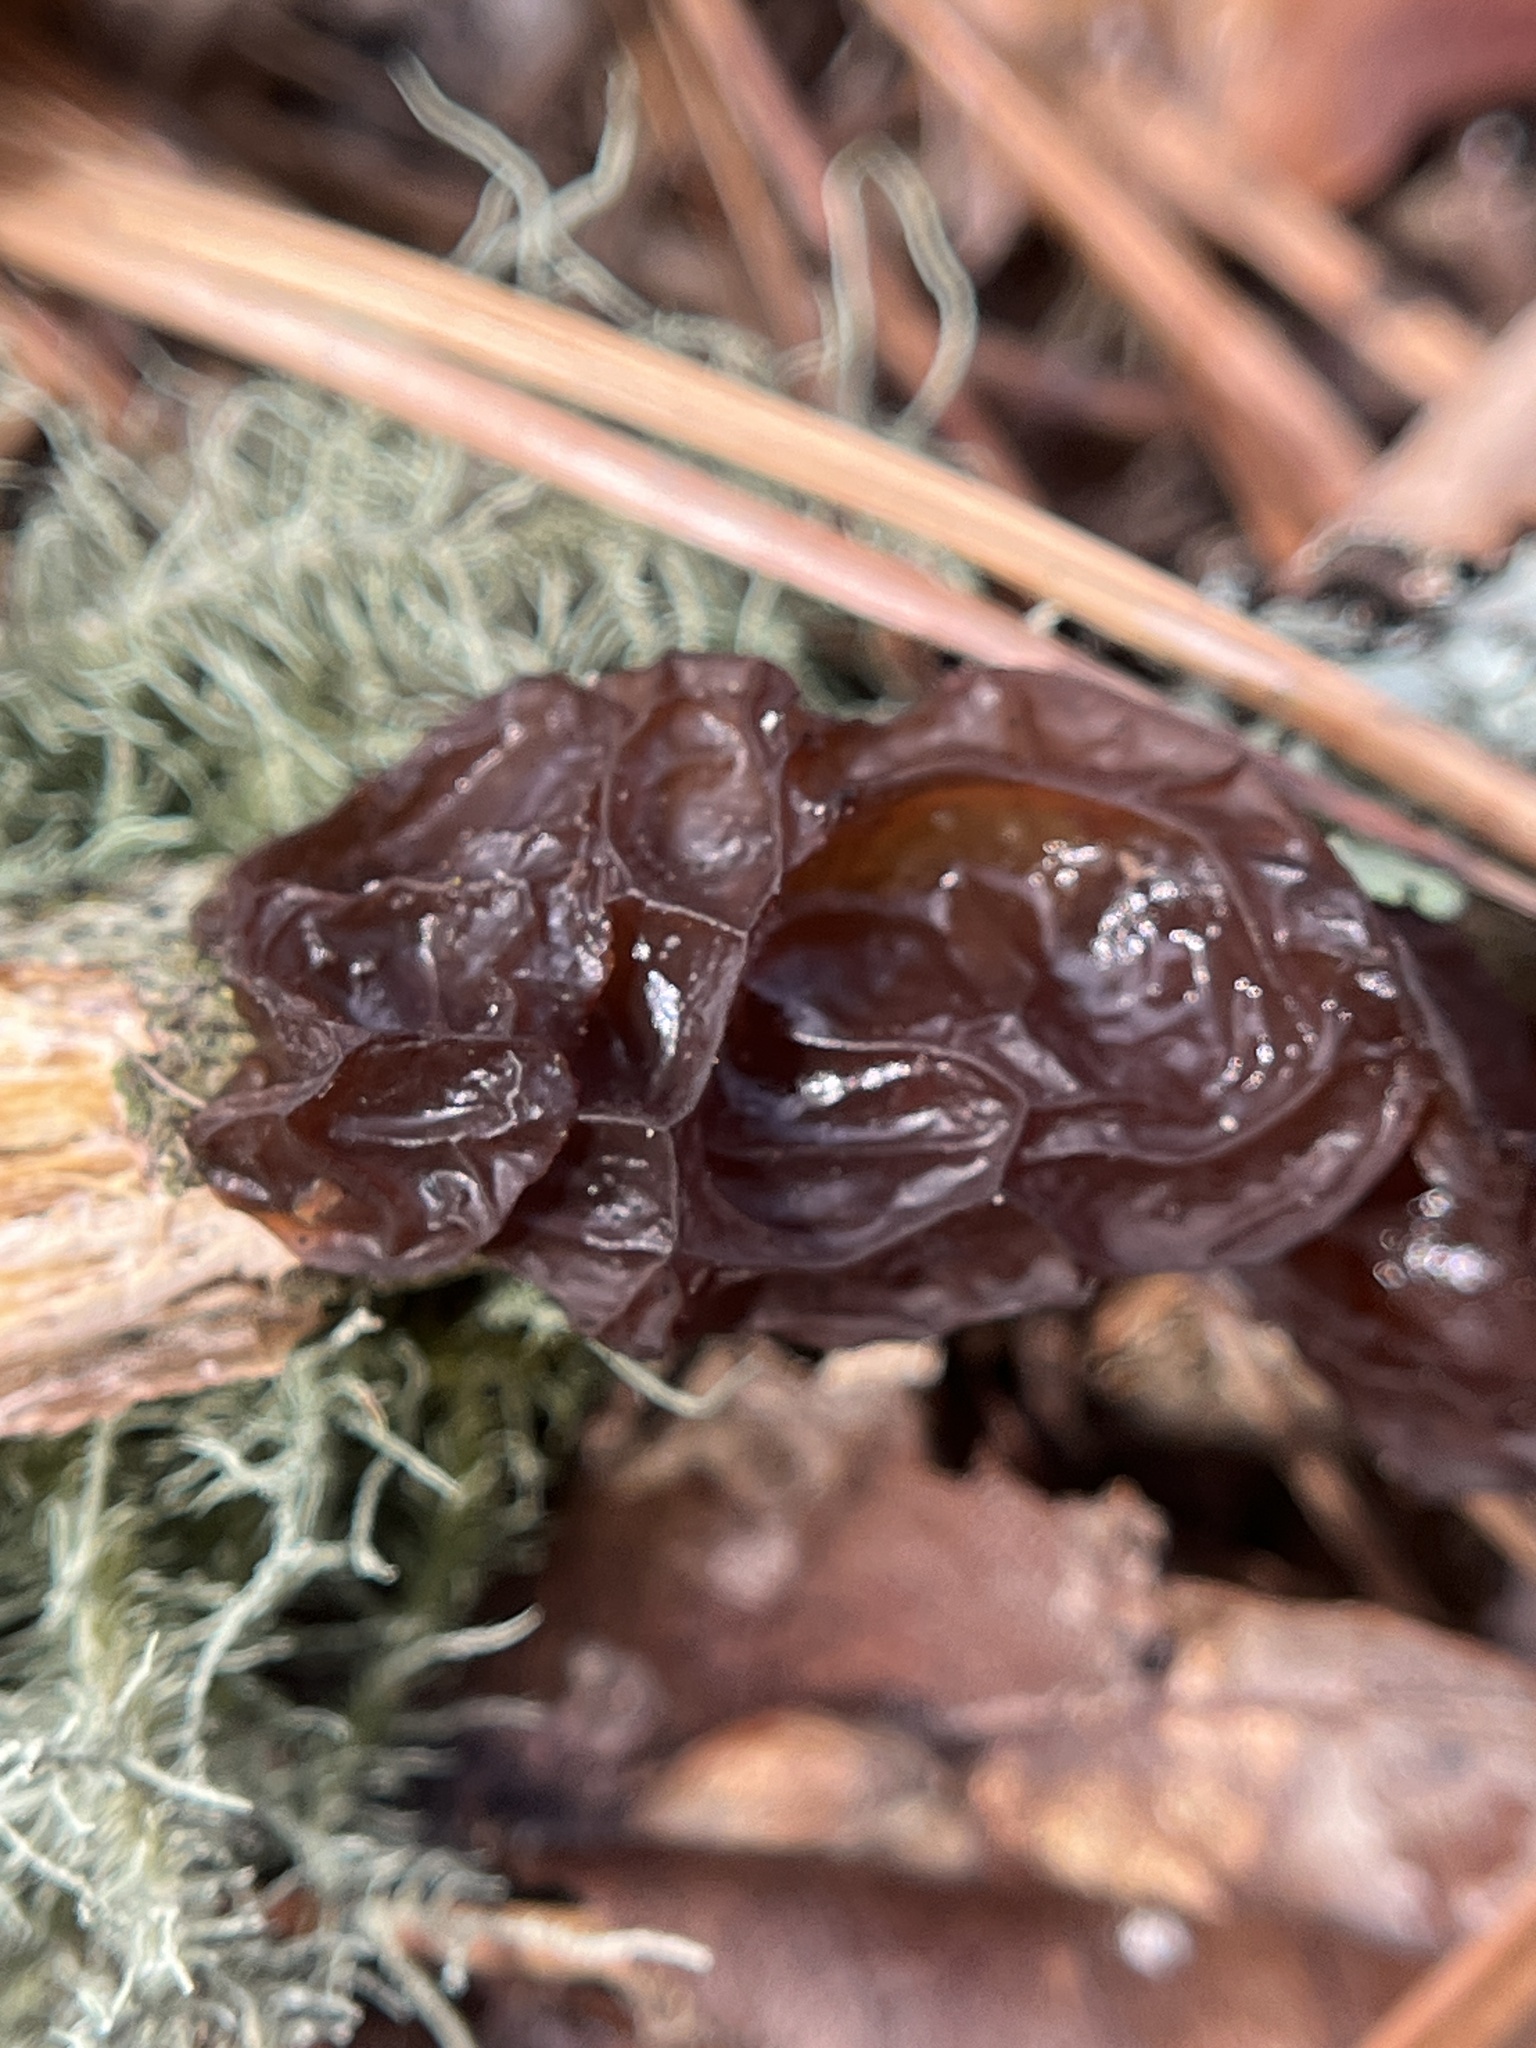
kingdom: Fungi
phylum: Basidiomycota
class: Agaricomycetes
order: Auriculariales
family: Auriculariaceae
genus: Exidia
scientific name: Exidia
